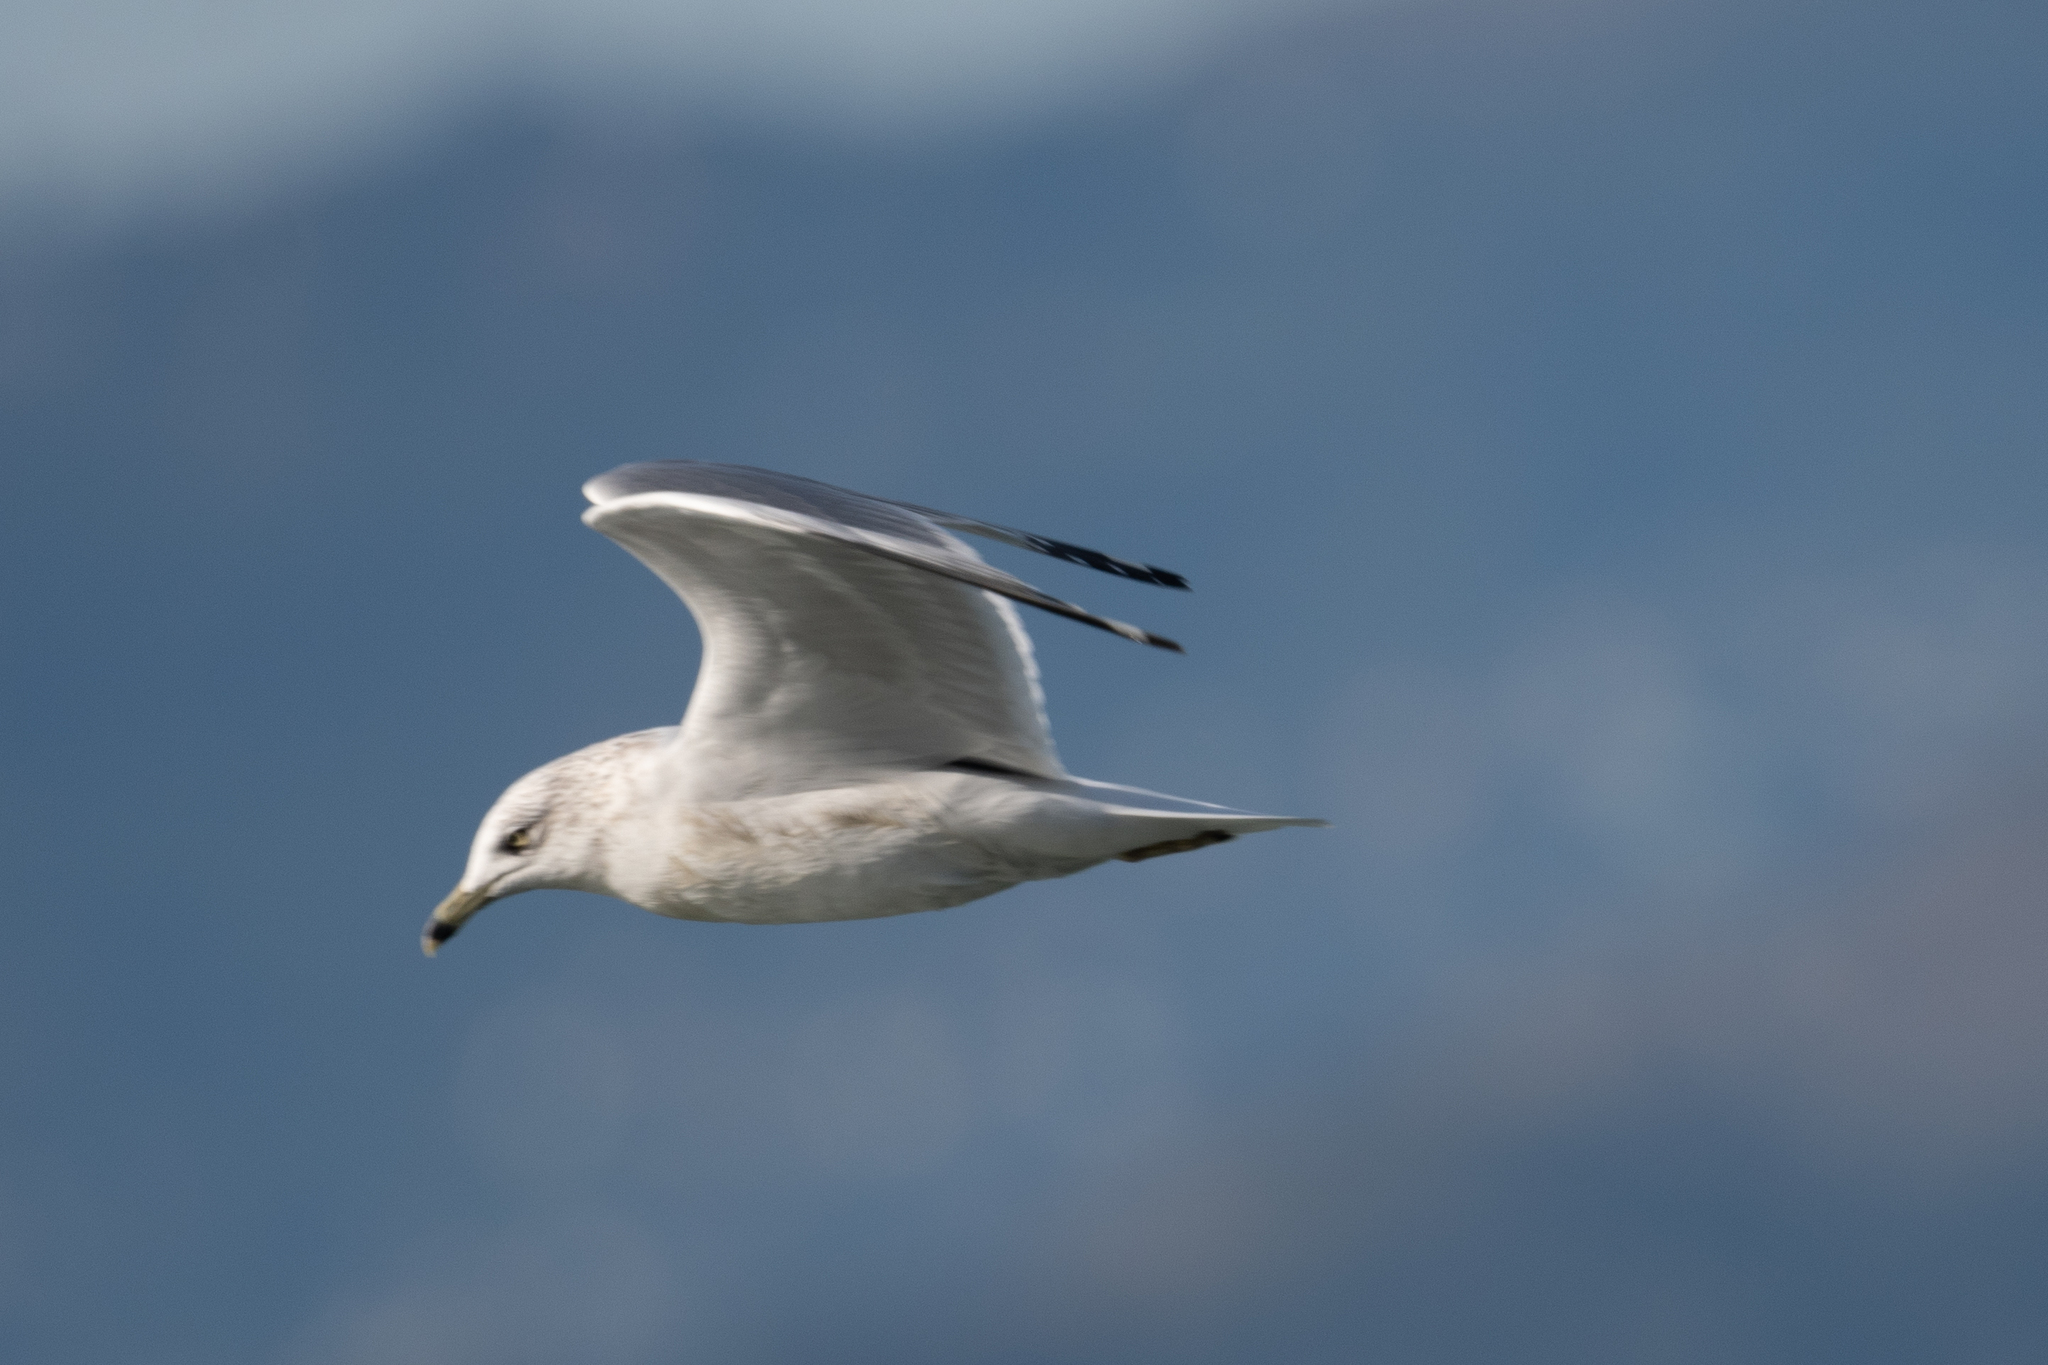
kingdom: Animalia
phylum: Chordata
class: Aves
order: Charadriiformes
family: Laridae
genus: Larus
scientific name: Larus delawarensis
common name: Ring-billed gull
